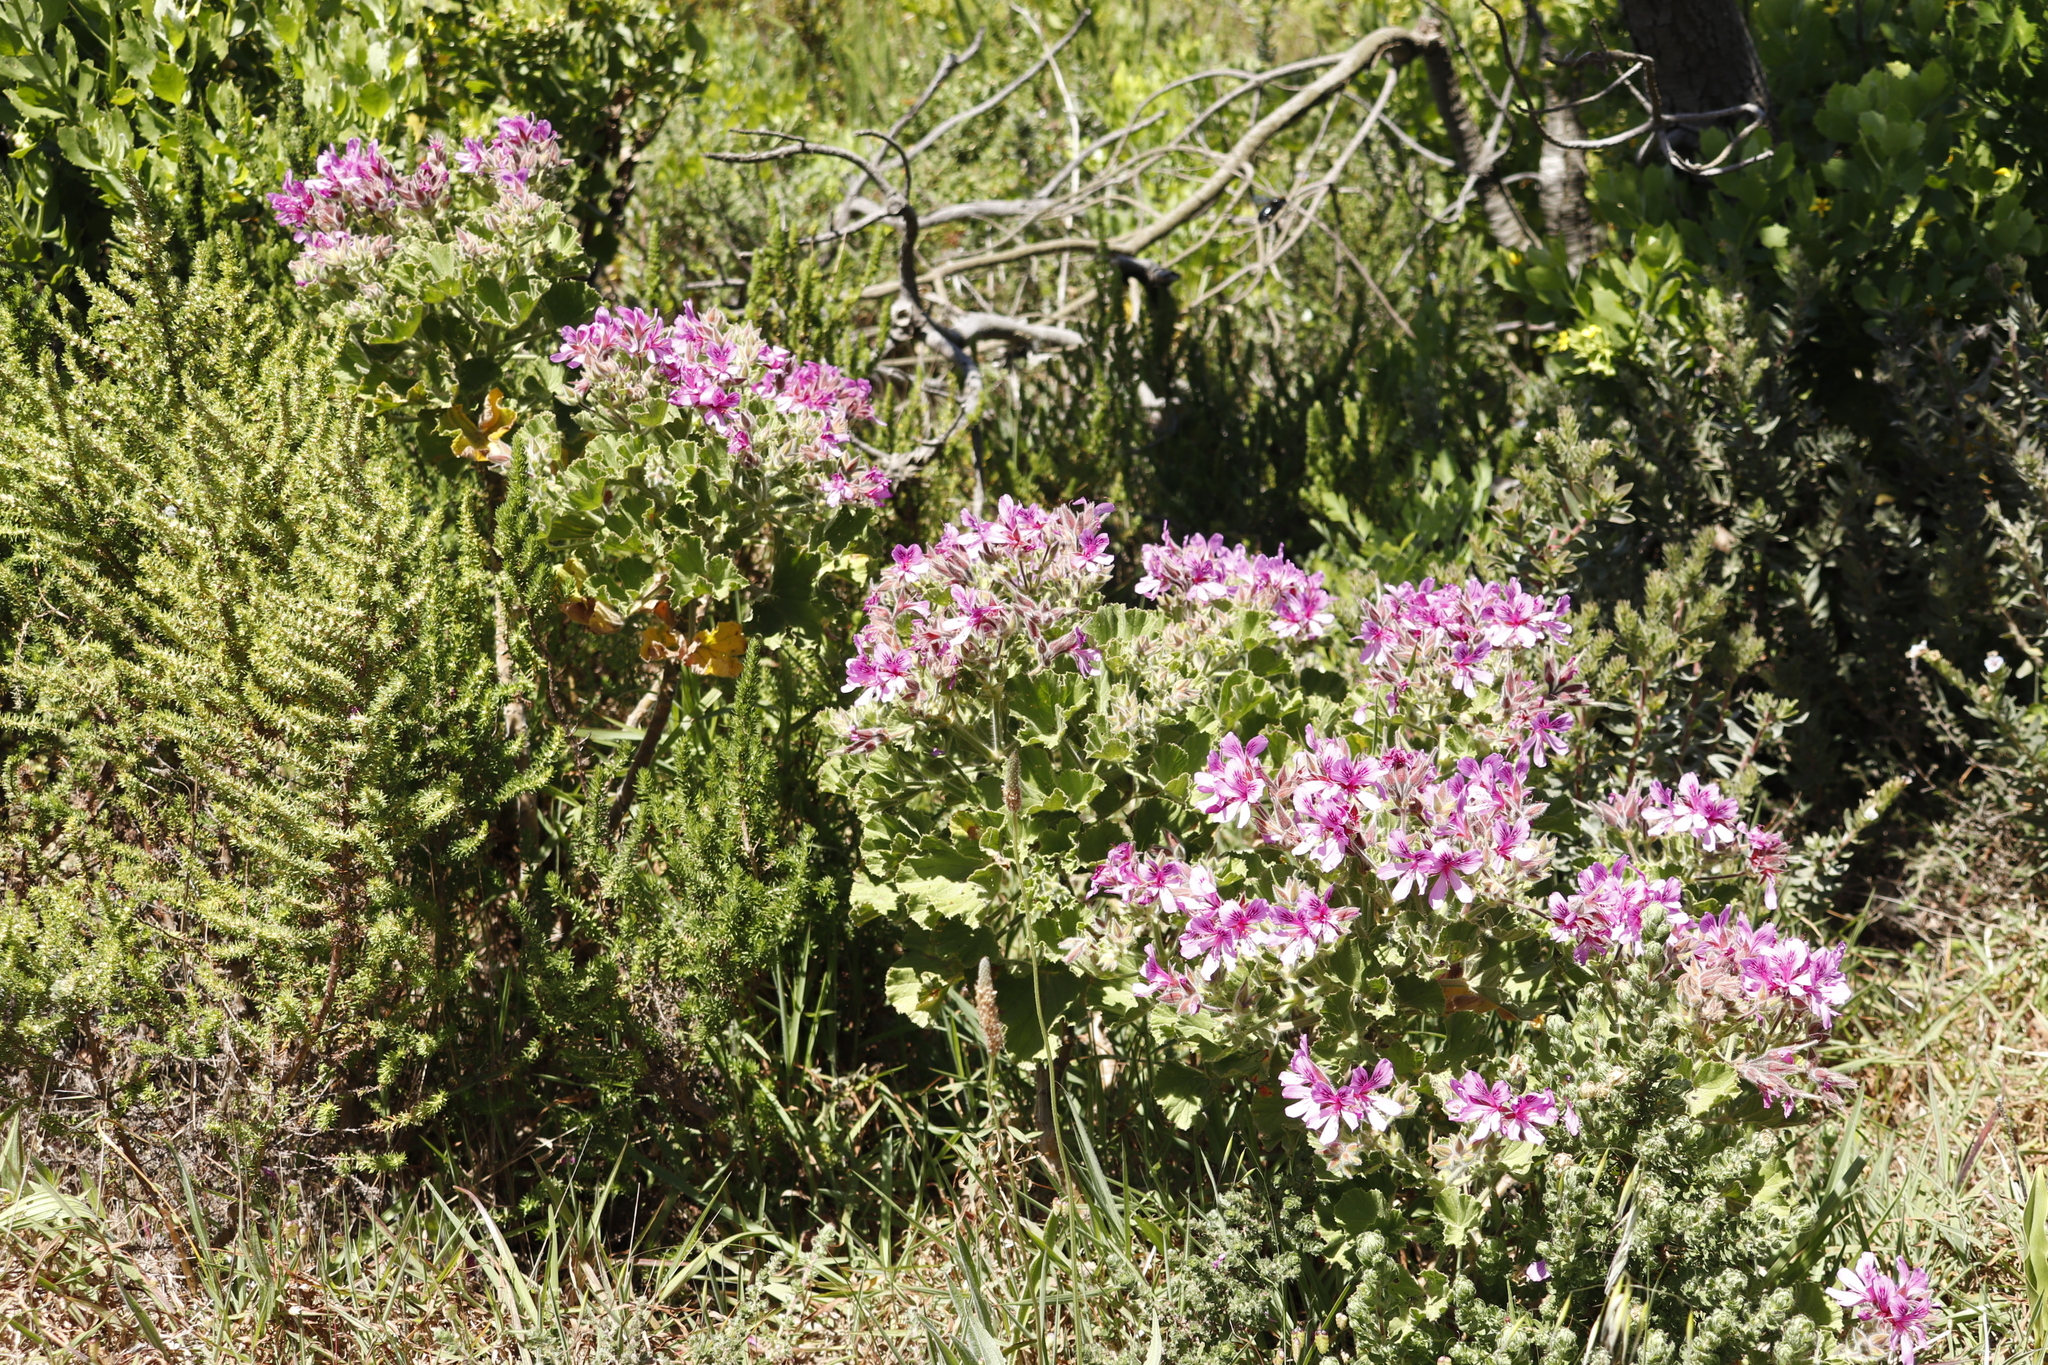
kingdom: Plantae
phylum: Tracheophyta
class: Magnoliopsida
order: Geraniales
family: Geraniaceae
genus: Pelargonium
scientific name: Pelargonium cucullatum
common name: Tree pelargonium
